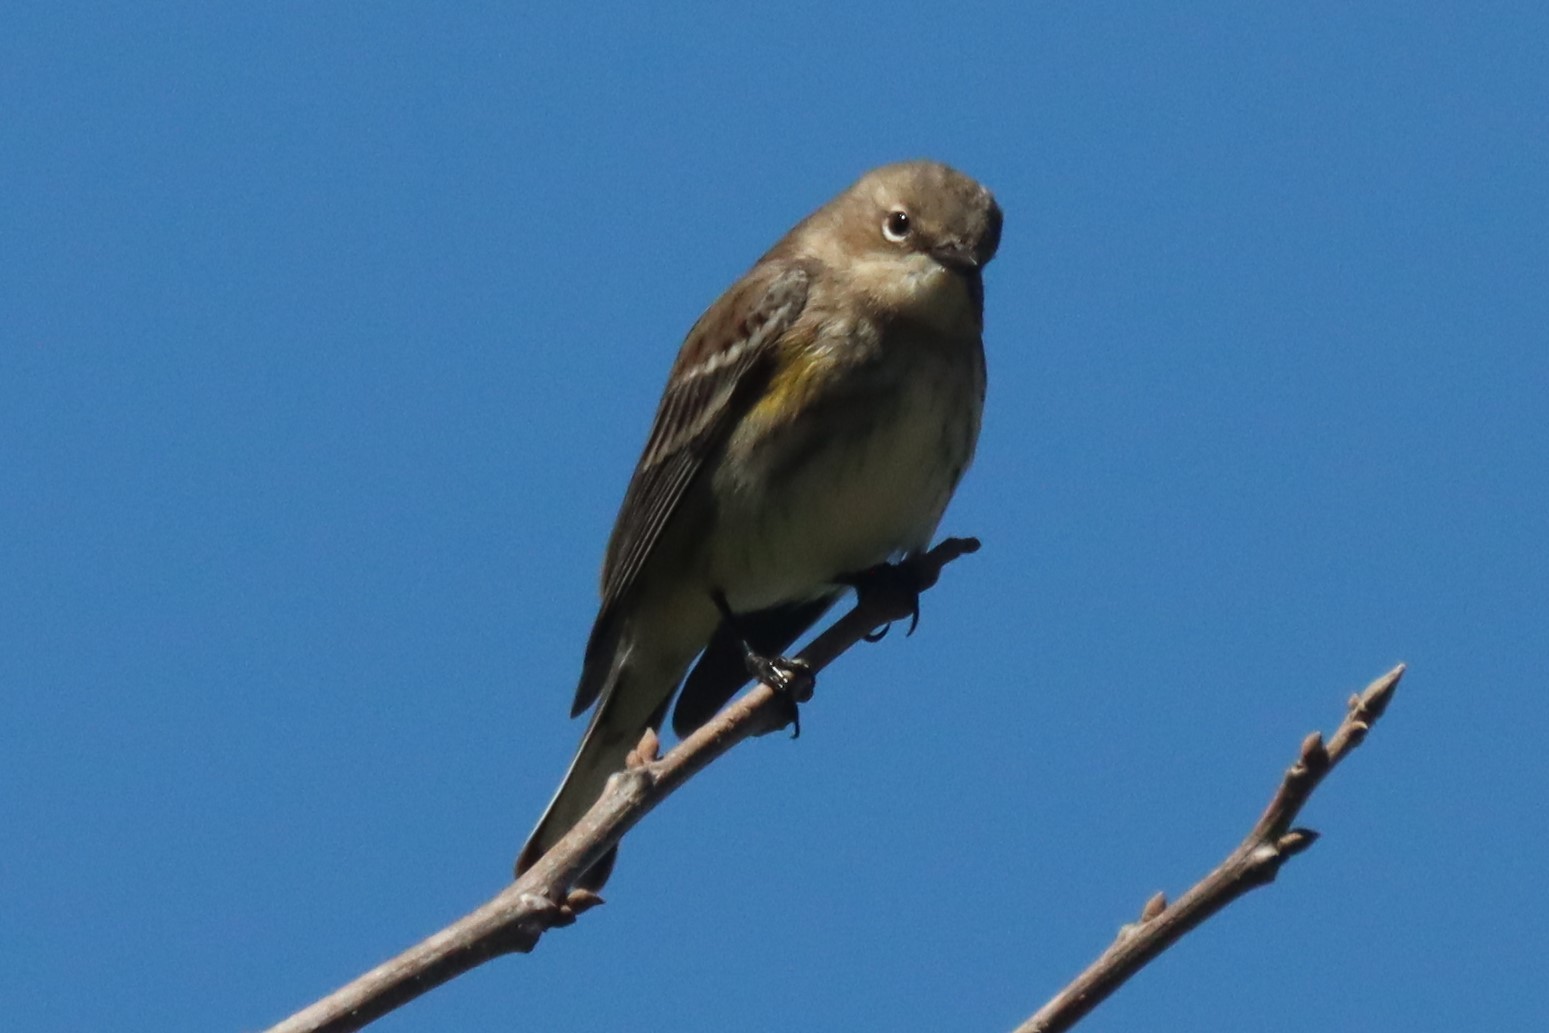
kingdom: Animalia
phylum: Chordata
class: Aves
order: Passeriformes
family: Parulidae
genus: Setophaga
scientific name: Setophaga coronata
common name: Myrtle warbler
